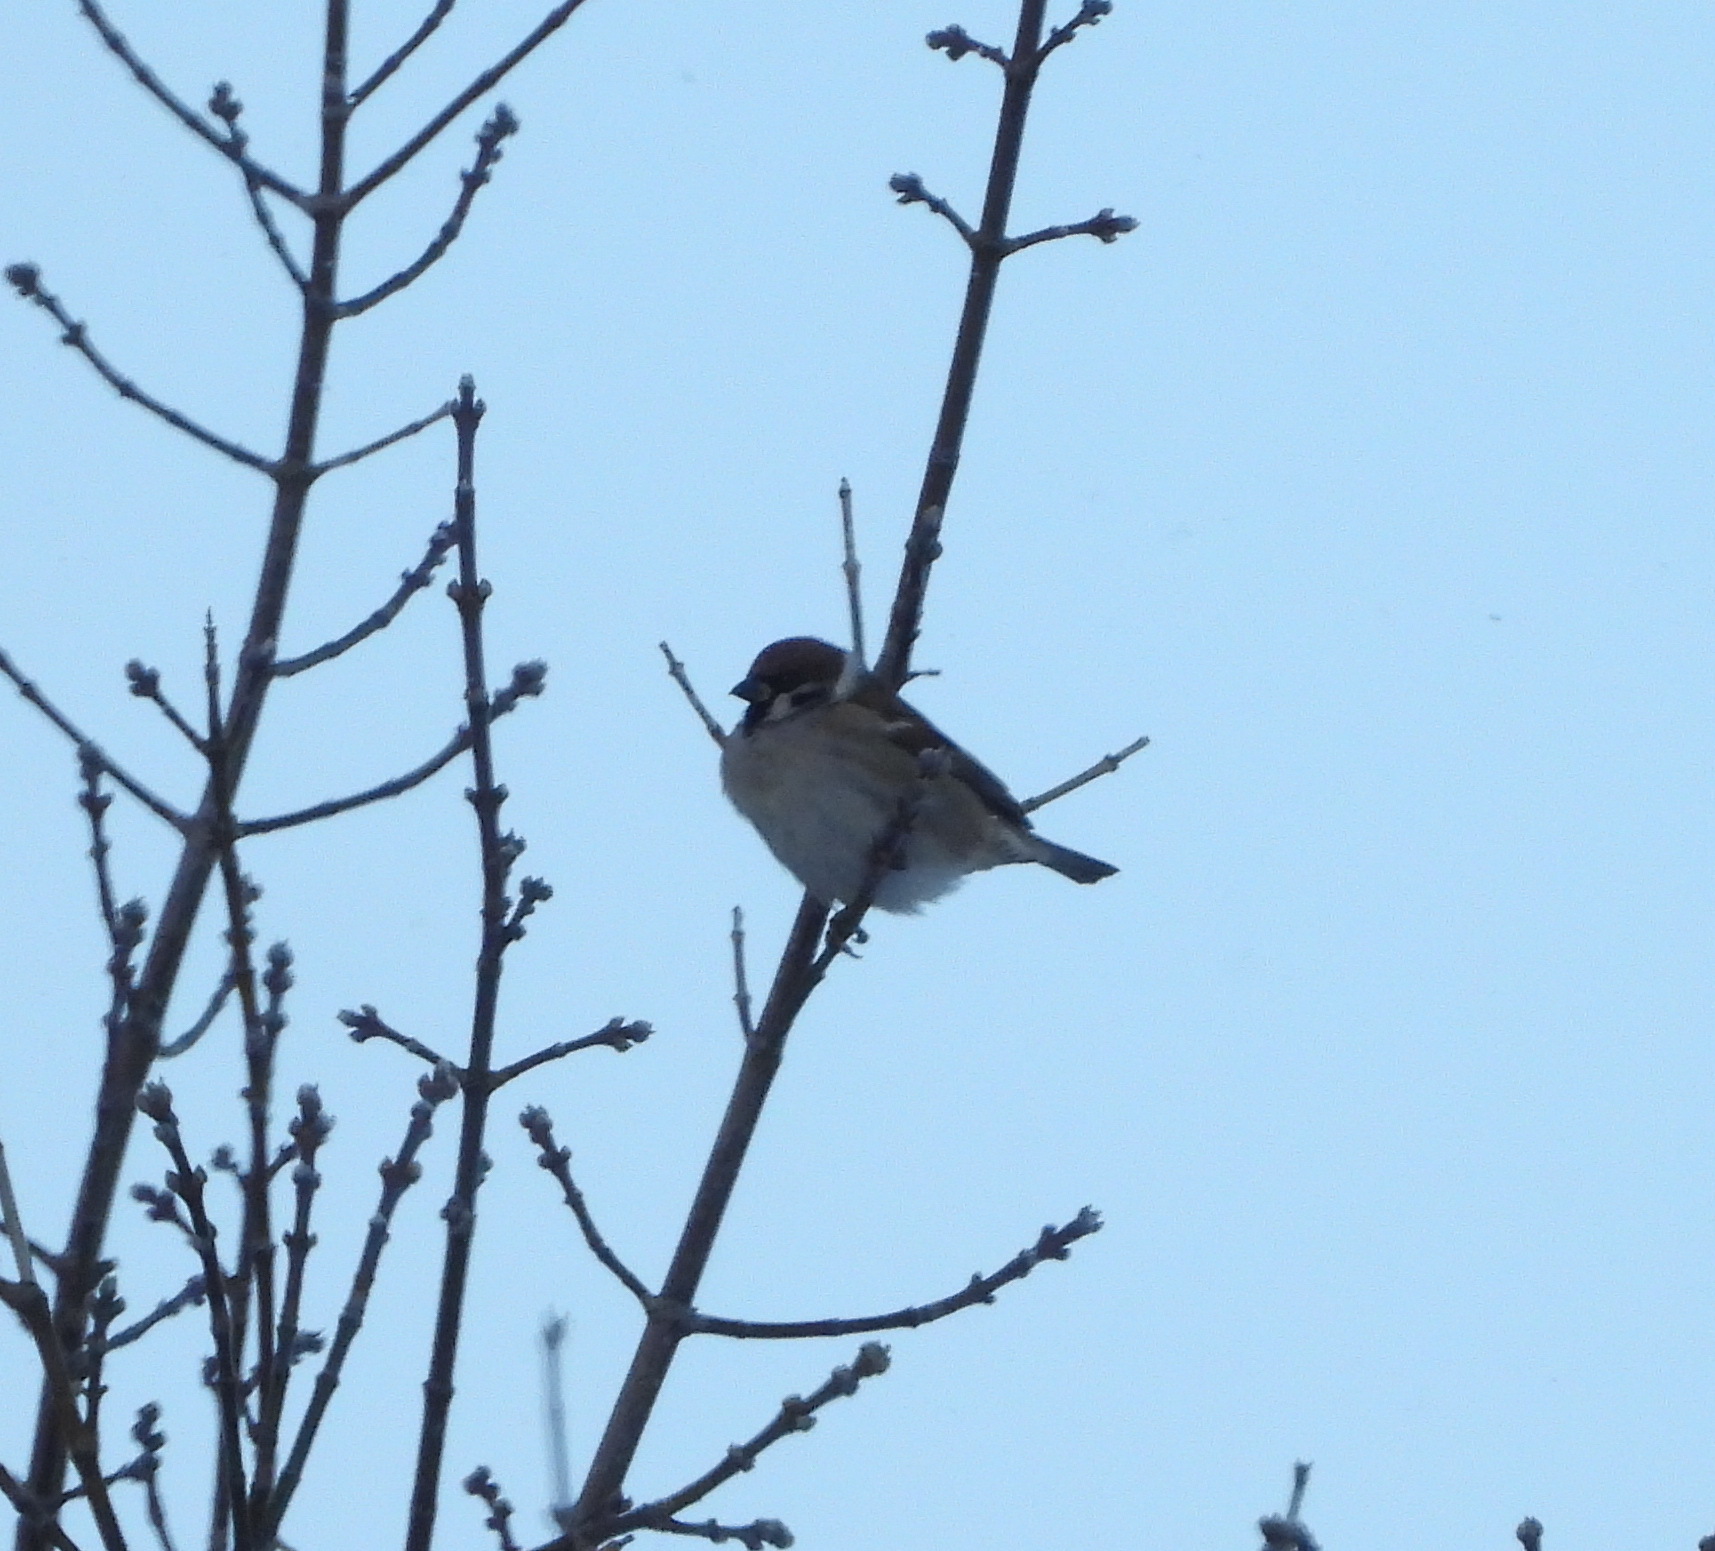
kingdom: Animalia
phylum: Chordata
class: Aves
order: Passeriformes
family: Passeridae
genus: Passer
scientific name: Passer montanus
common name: Eurasian tree sparrow
